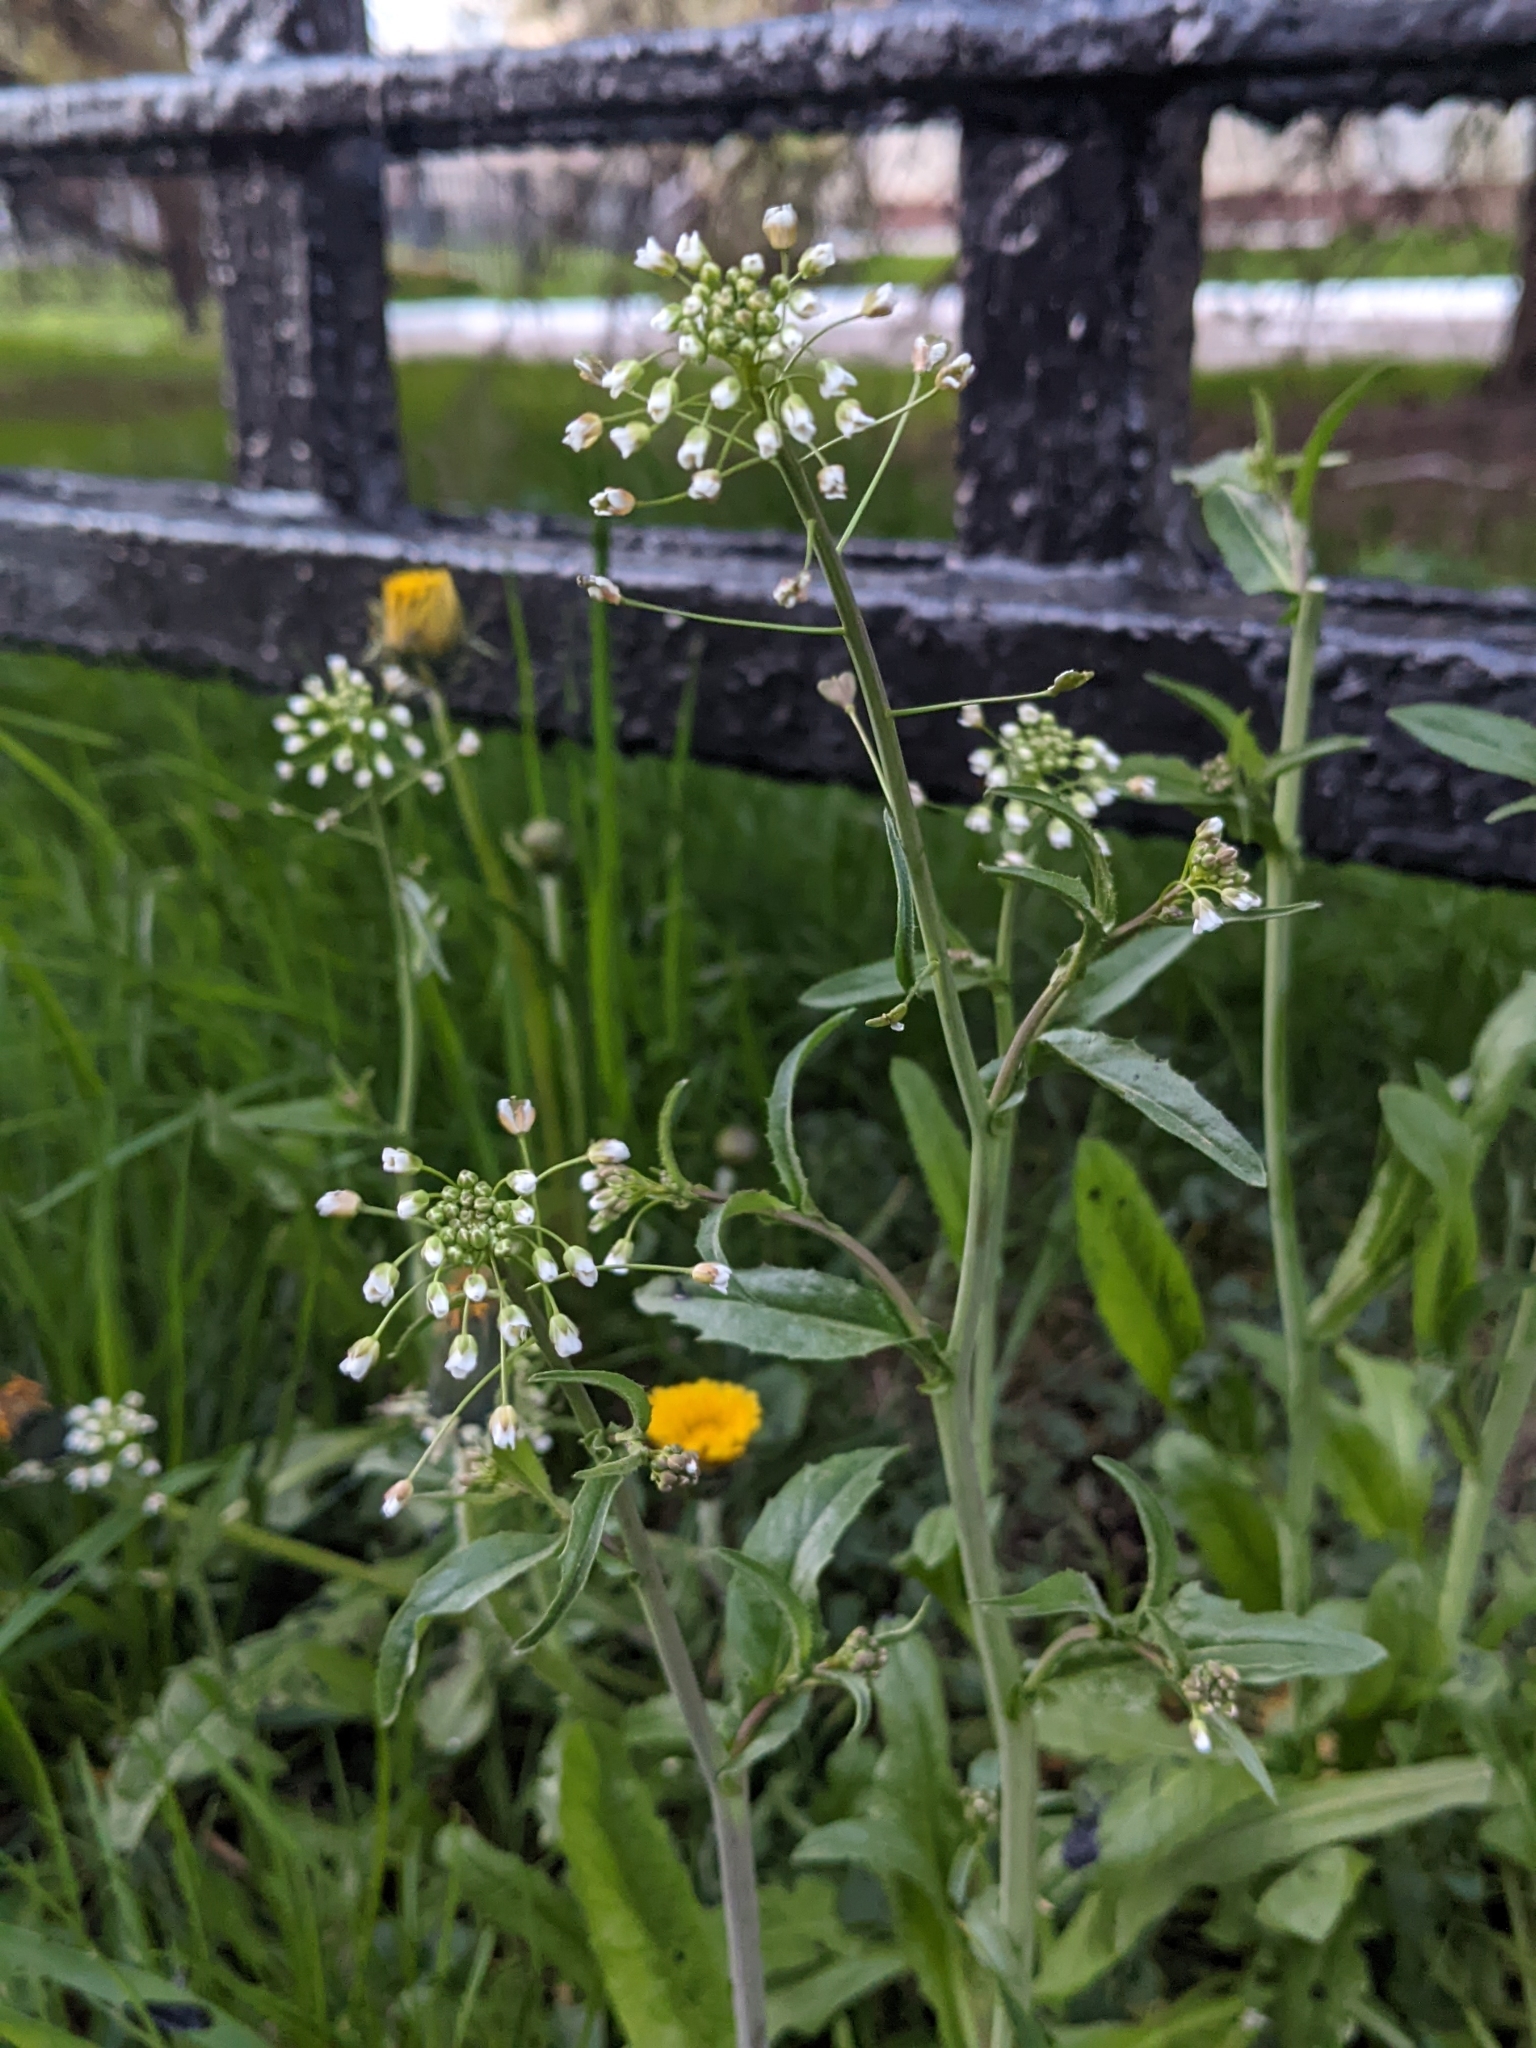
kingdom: Plantae
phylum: Tracheophyta
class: Magnoliopsida
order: Brassicales
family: Brassicaceae
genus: Capsella
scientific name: Capsella bursa-pastoris
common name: Shepherd's purse
